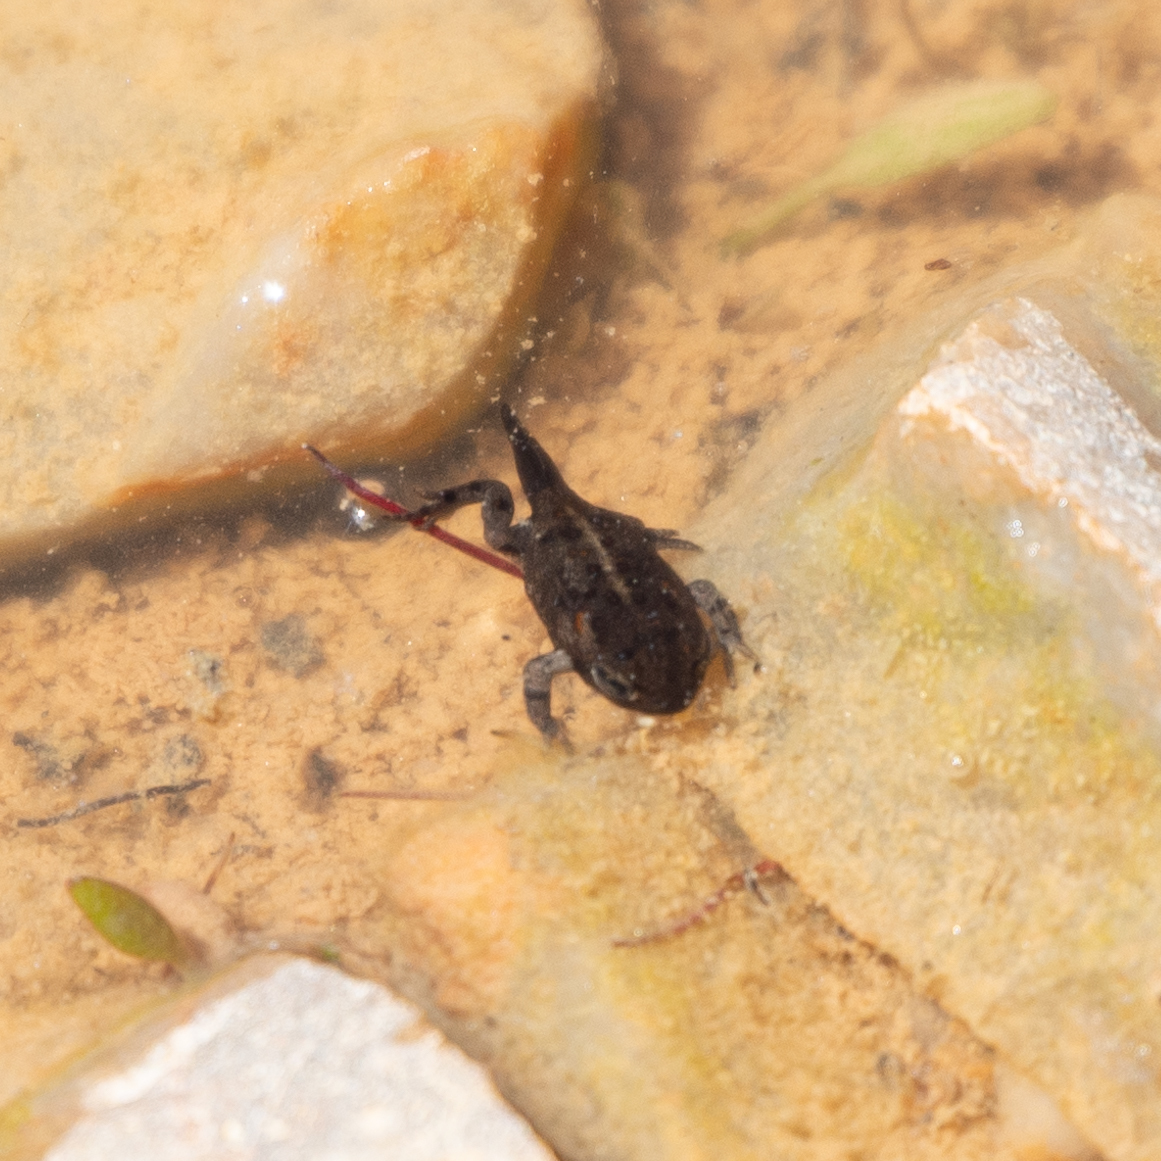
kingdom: Animalia
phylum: Chordata
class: Amphibia
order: Anura
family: Bufonidae
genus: Epidalea
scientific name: Epidalea calamita
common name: Natterjack toad
